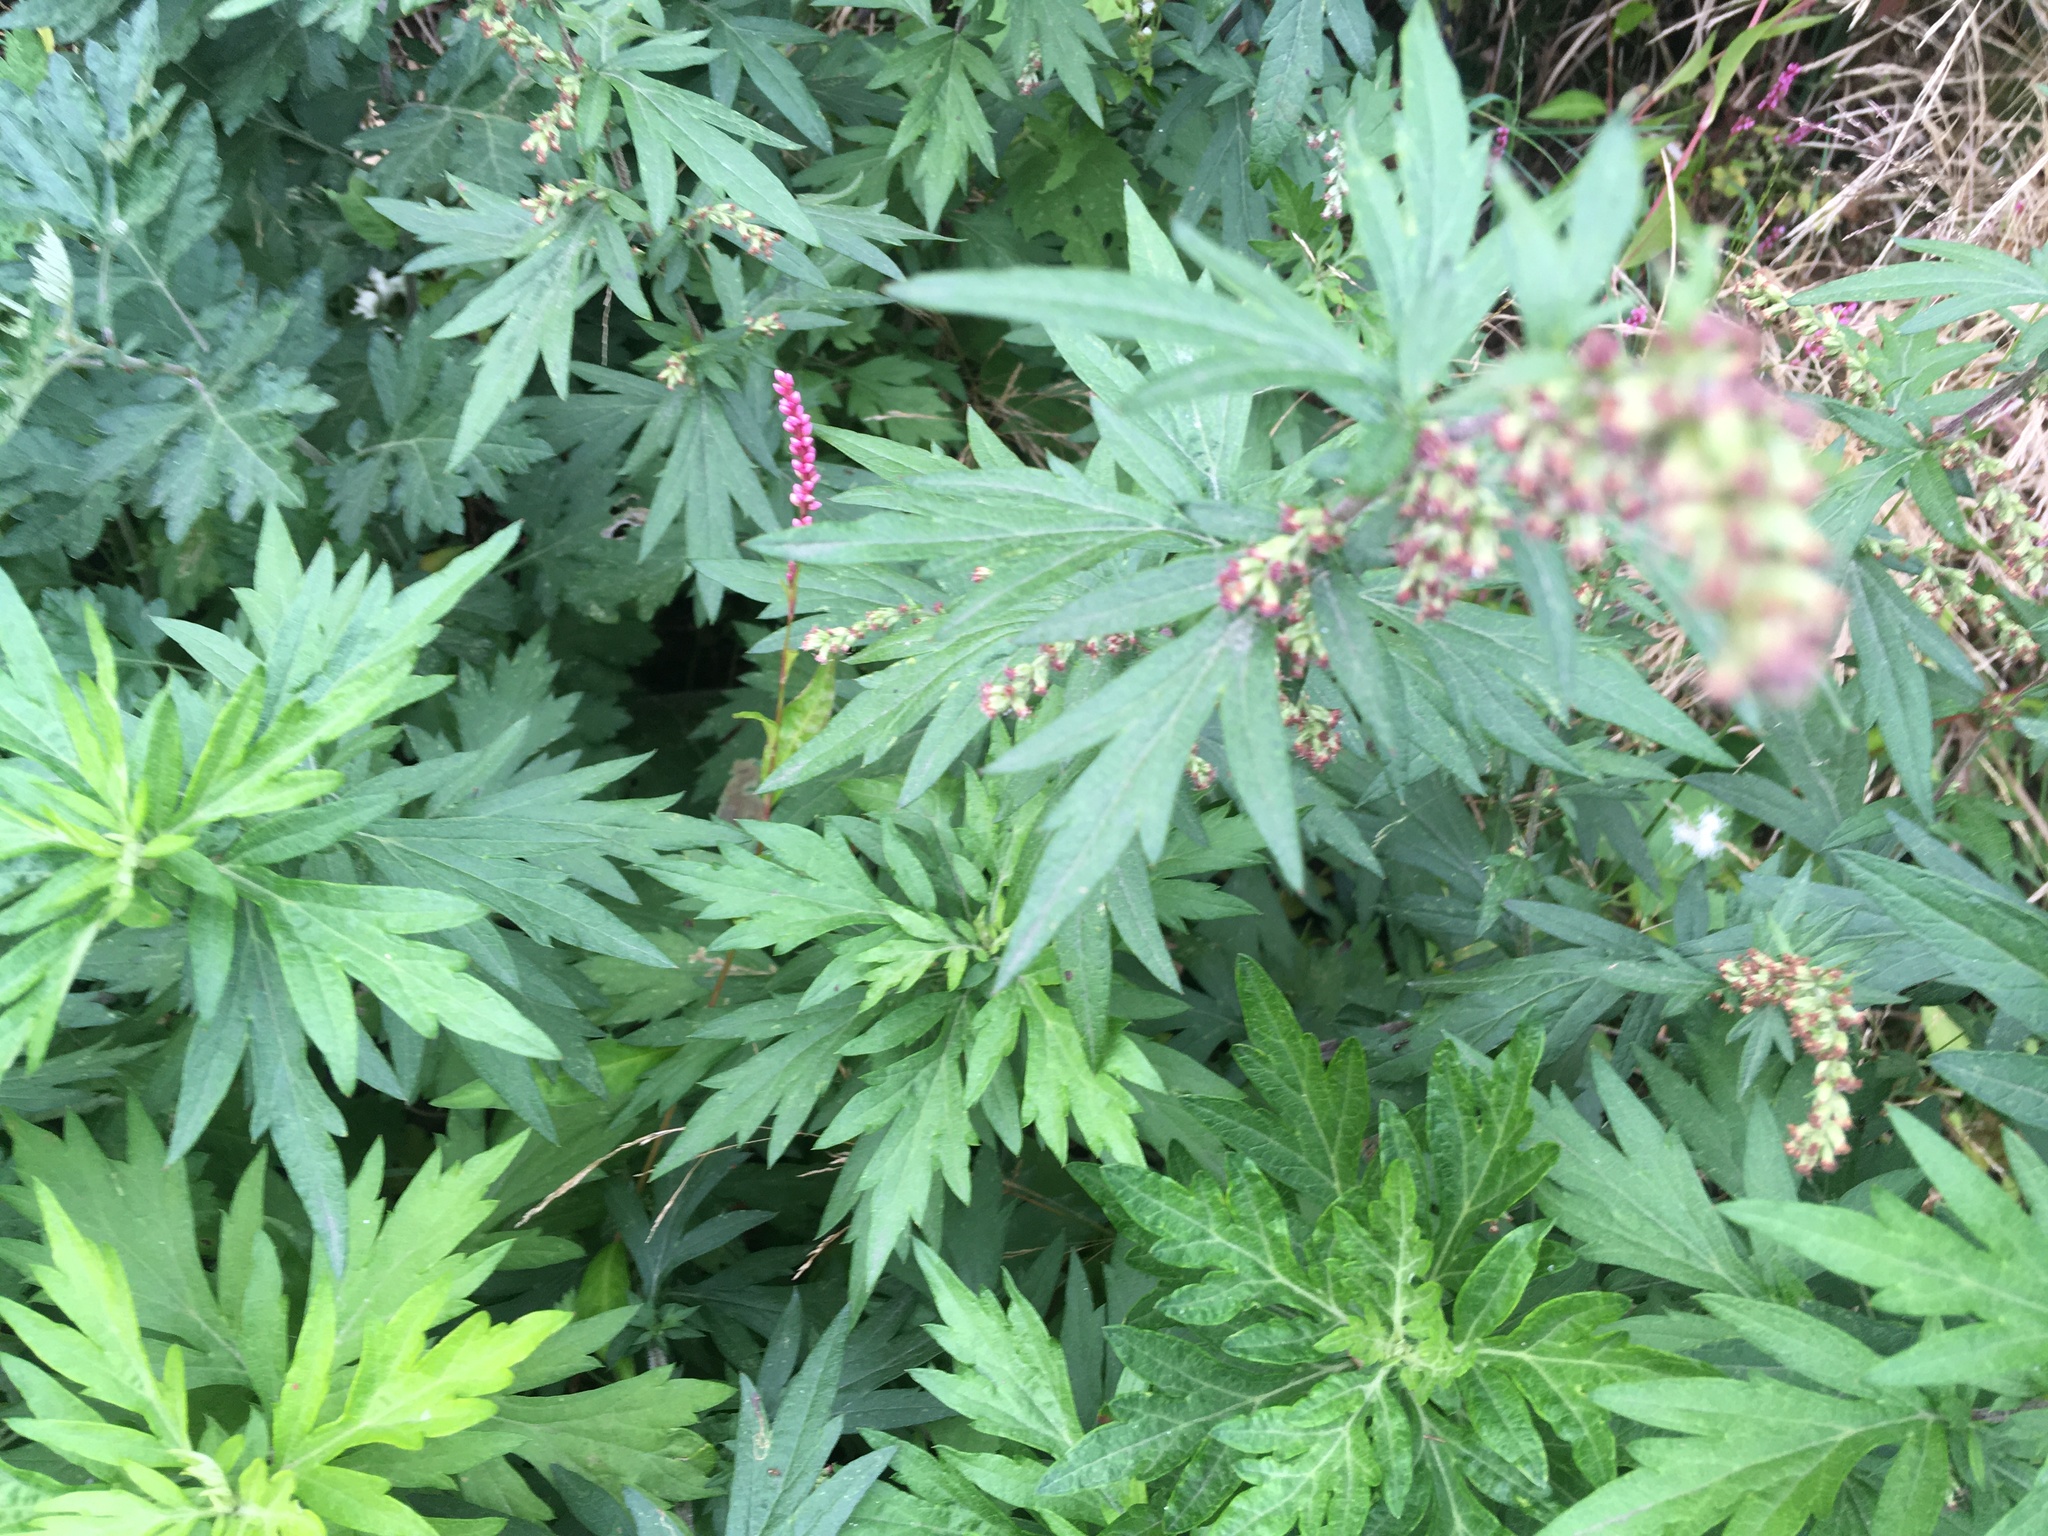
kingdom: Plantae
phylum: Tracheophyta
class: Magnoliopsida
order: Asterales
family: Asteraceae
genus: Artemisia
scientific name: Artemisia vulgaris
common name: Mugwort
